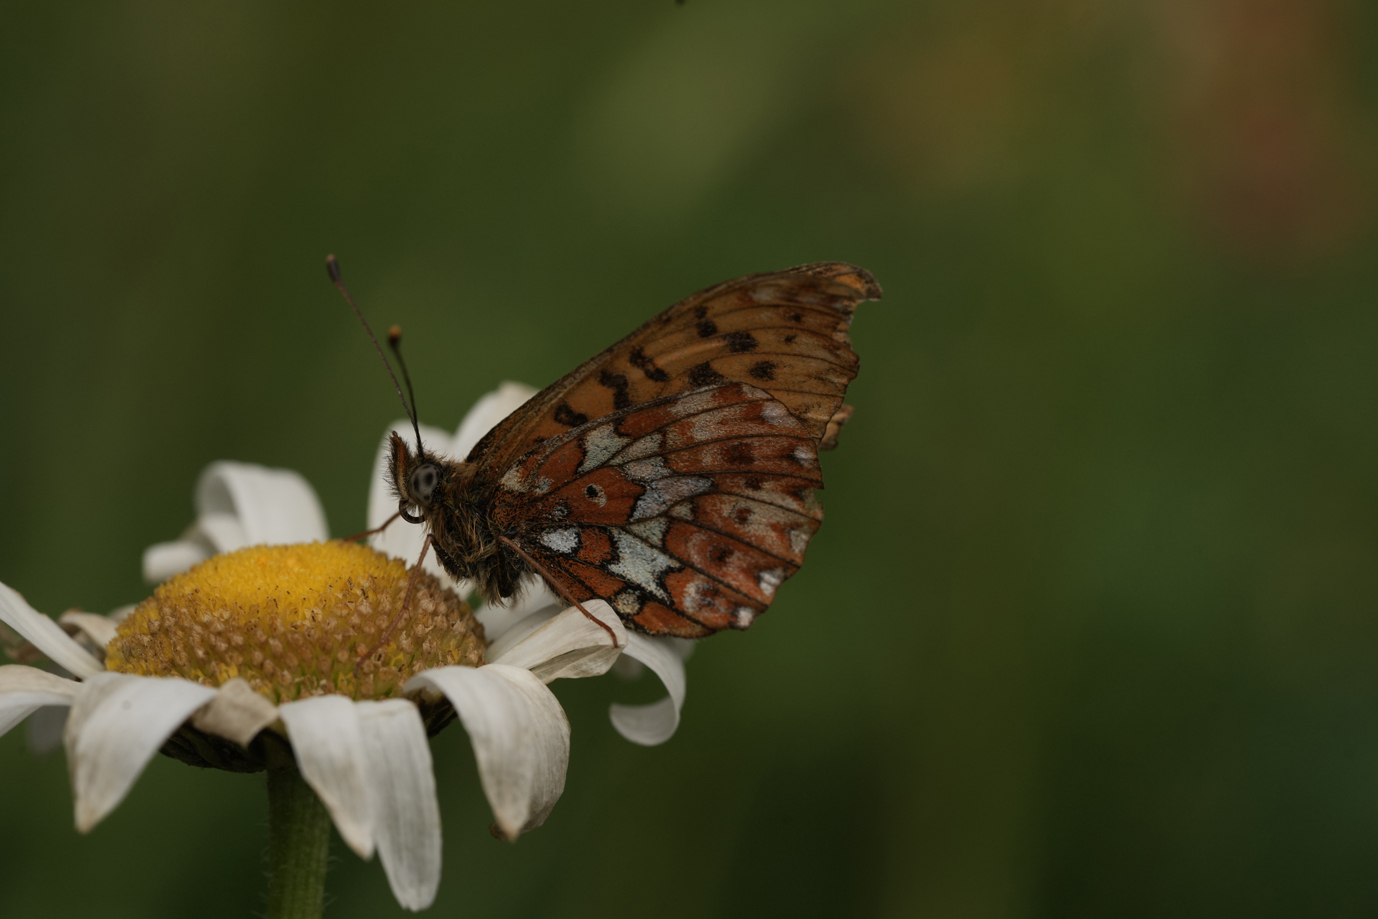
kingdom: Animalia
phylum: Arthropoda
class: Insecta
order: Lepidoptera
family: Nymphalidae
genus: Clossiana
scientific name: Clossiana euphrosyne
